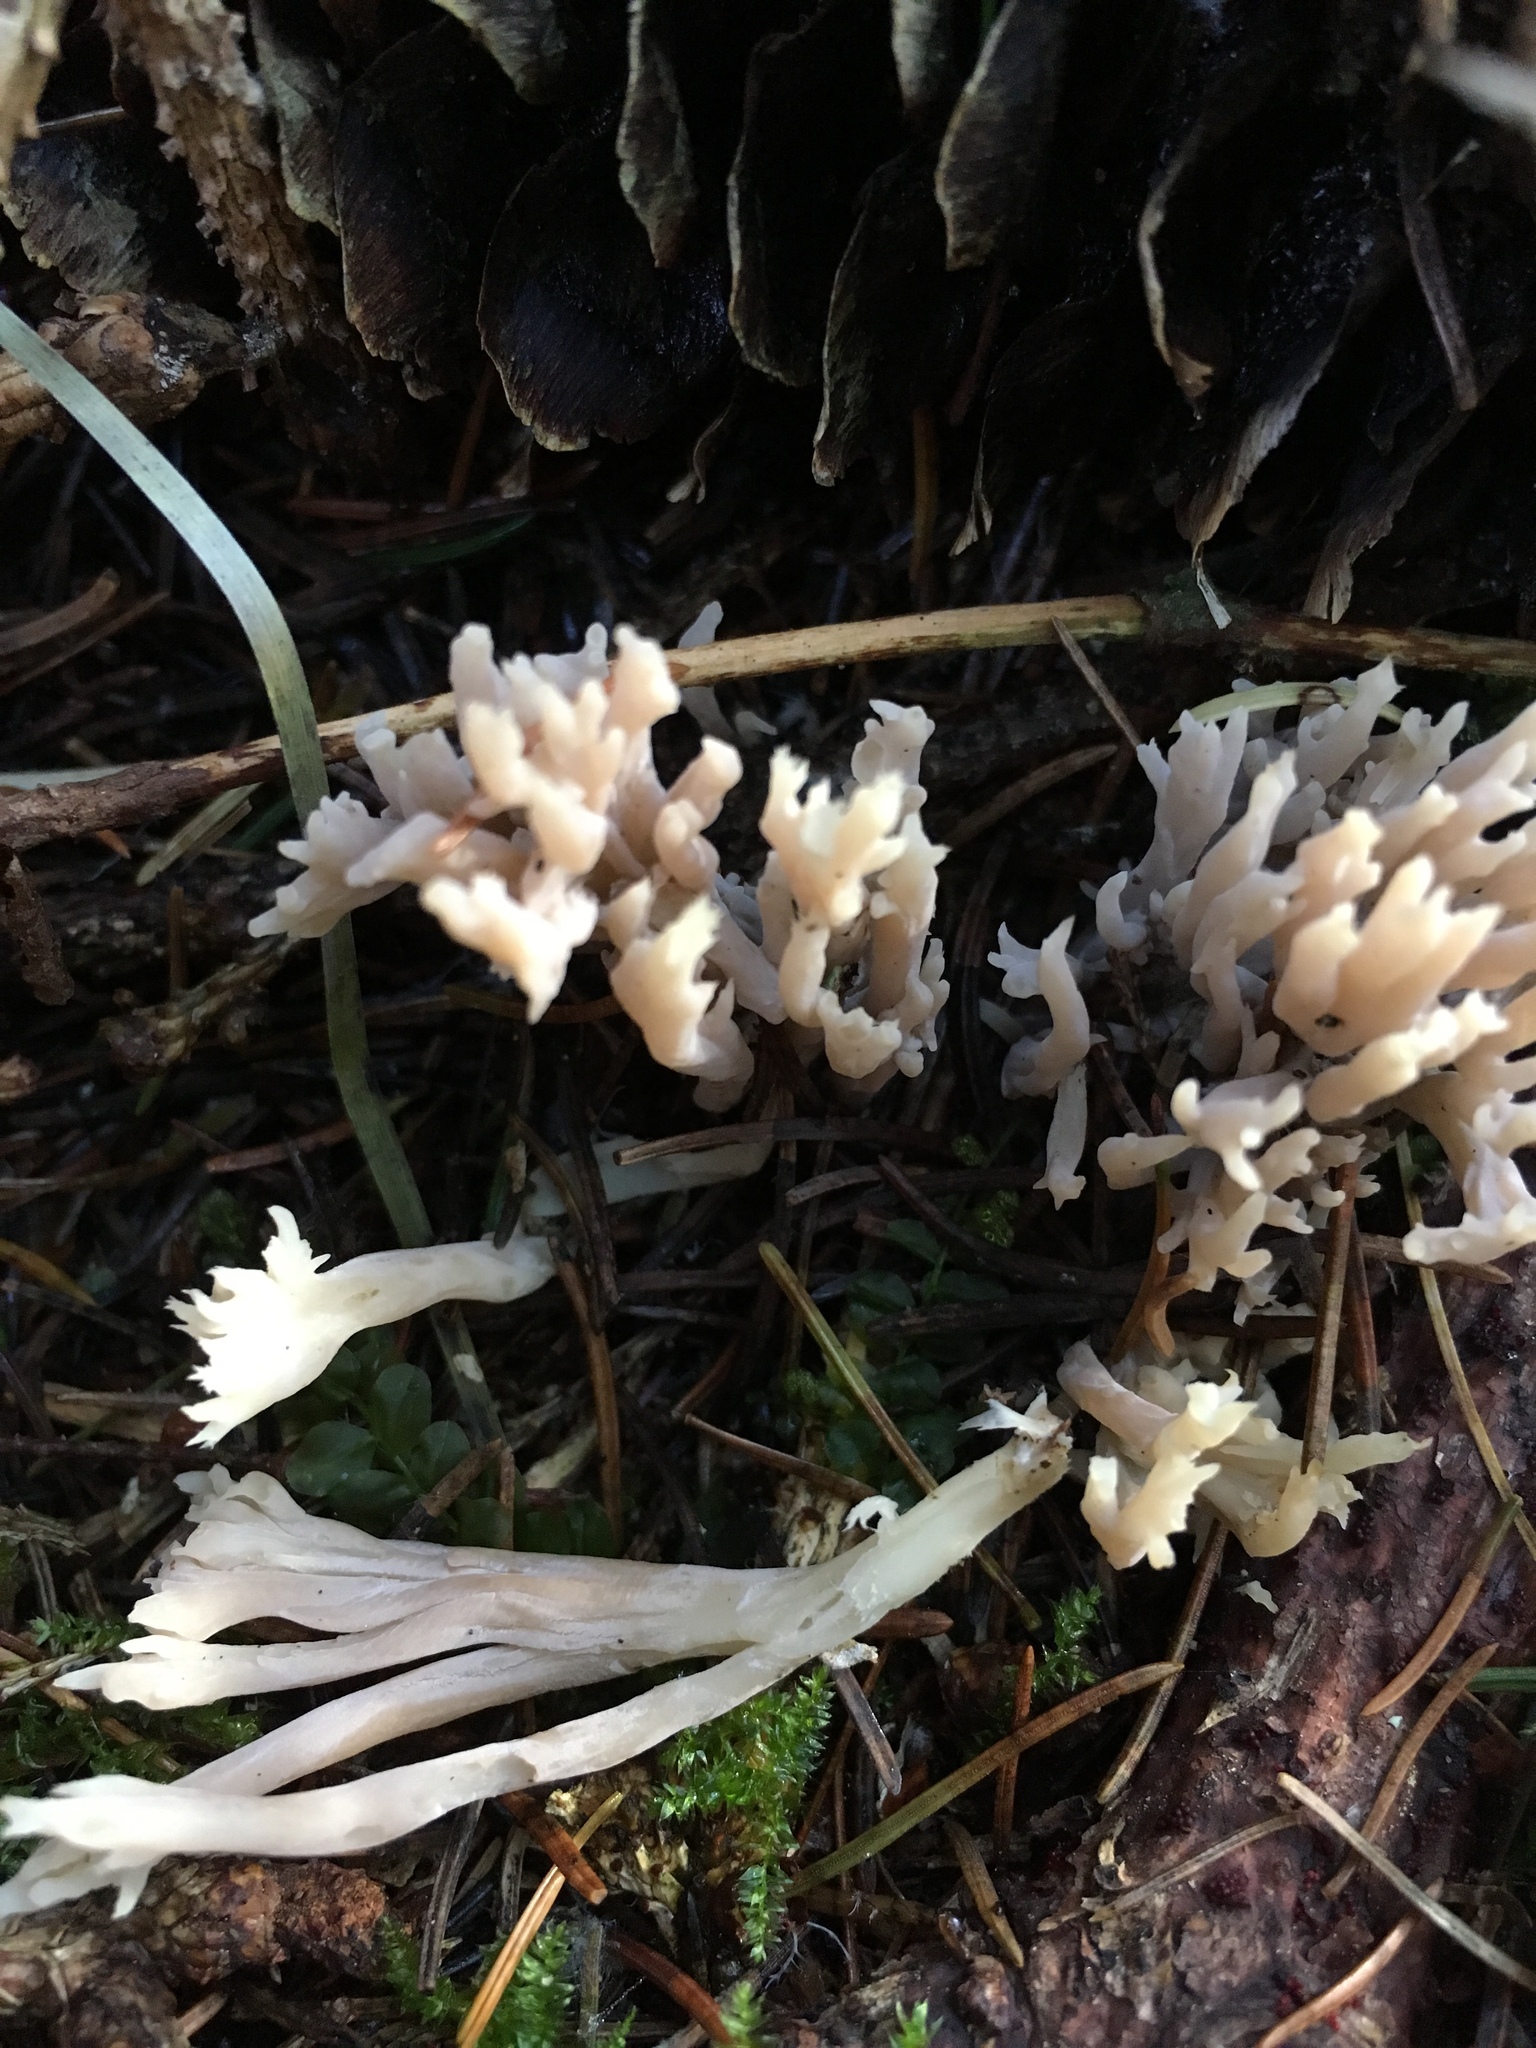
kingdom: Fungi
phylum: Basidiomycota
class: Agaricomycetes
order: Cantharellales
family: Hydnaceae
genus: Clavulina
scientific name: Clavulina coralloides
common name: Crested coral
